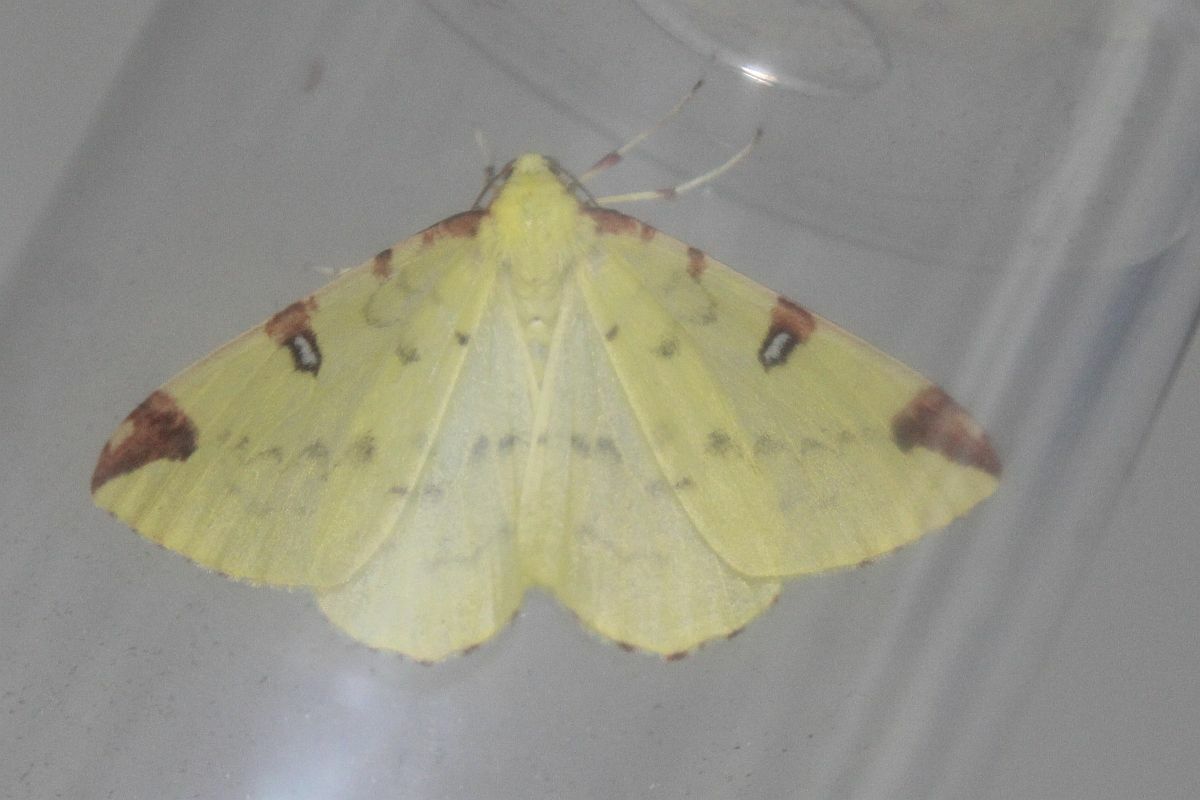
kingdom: Animalia
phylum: Arthropoda
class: Insecta
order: Lepidoptera
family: Geometridae
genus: Opisthograptis
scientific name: Opisthograptis luteolata
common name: Brimstone moth
